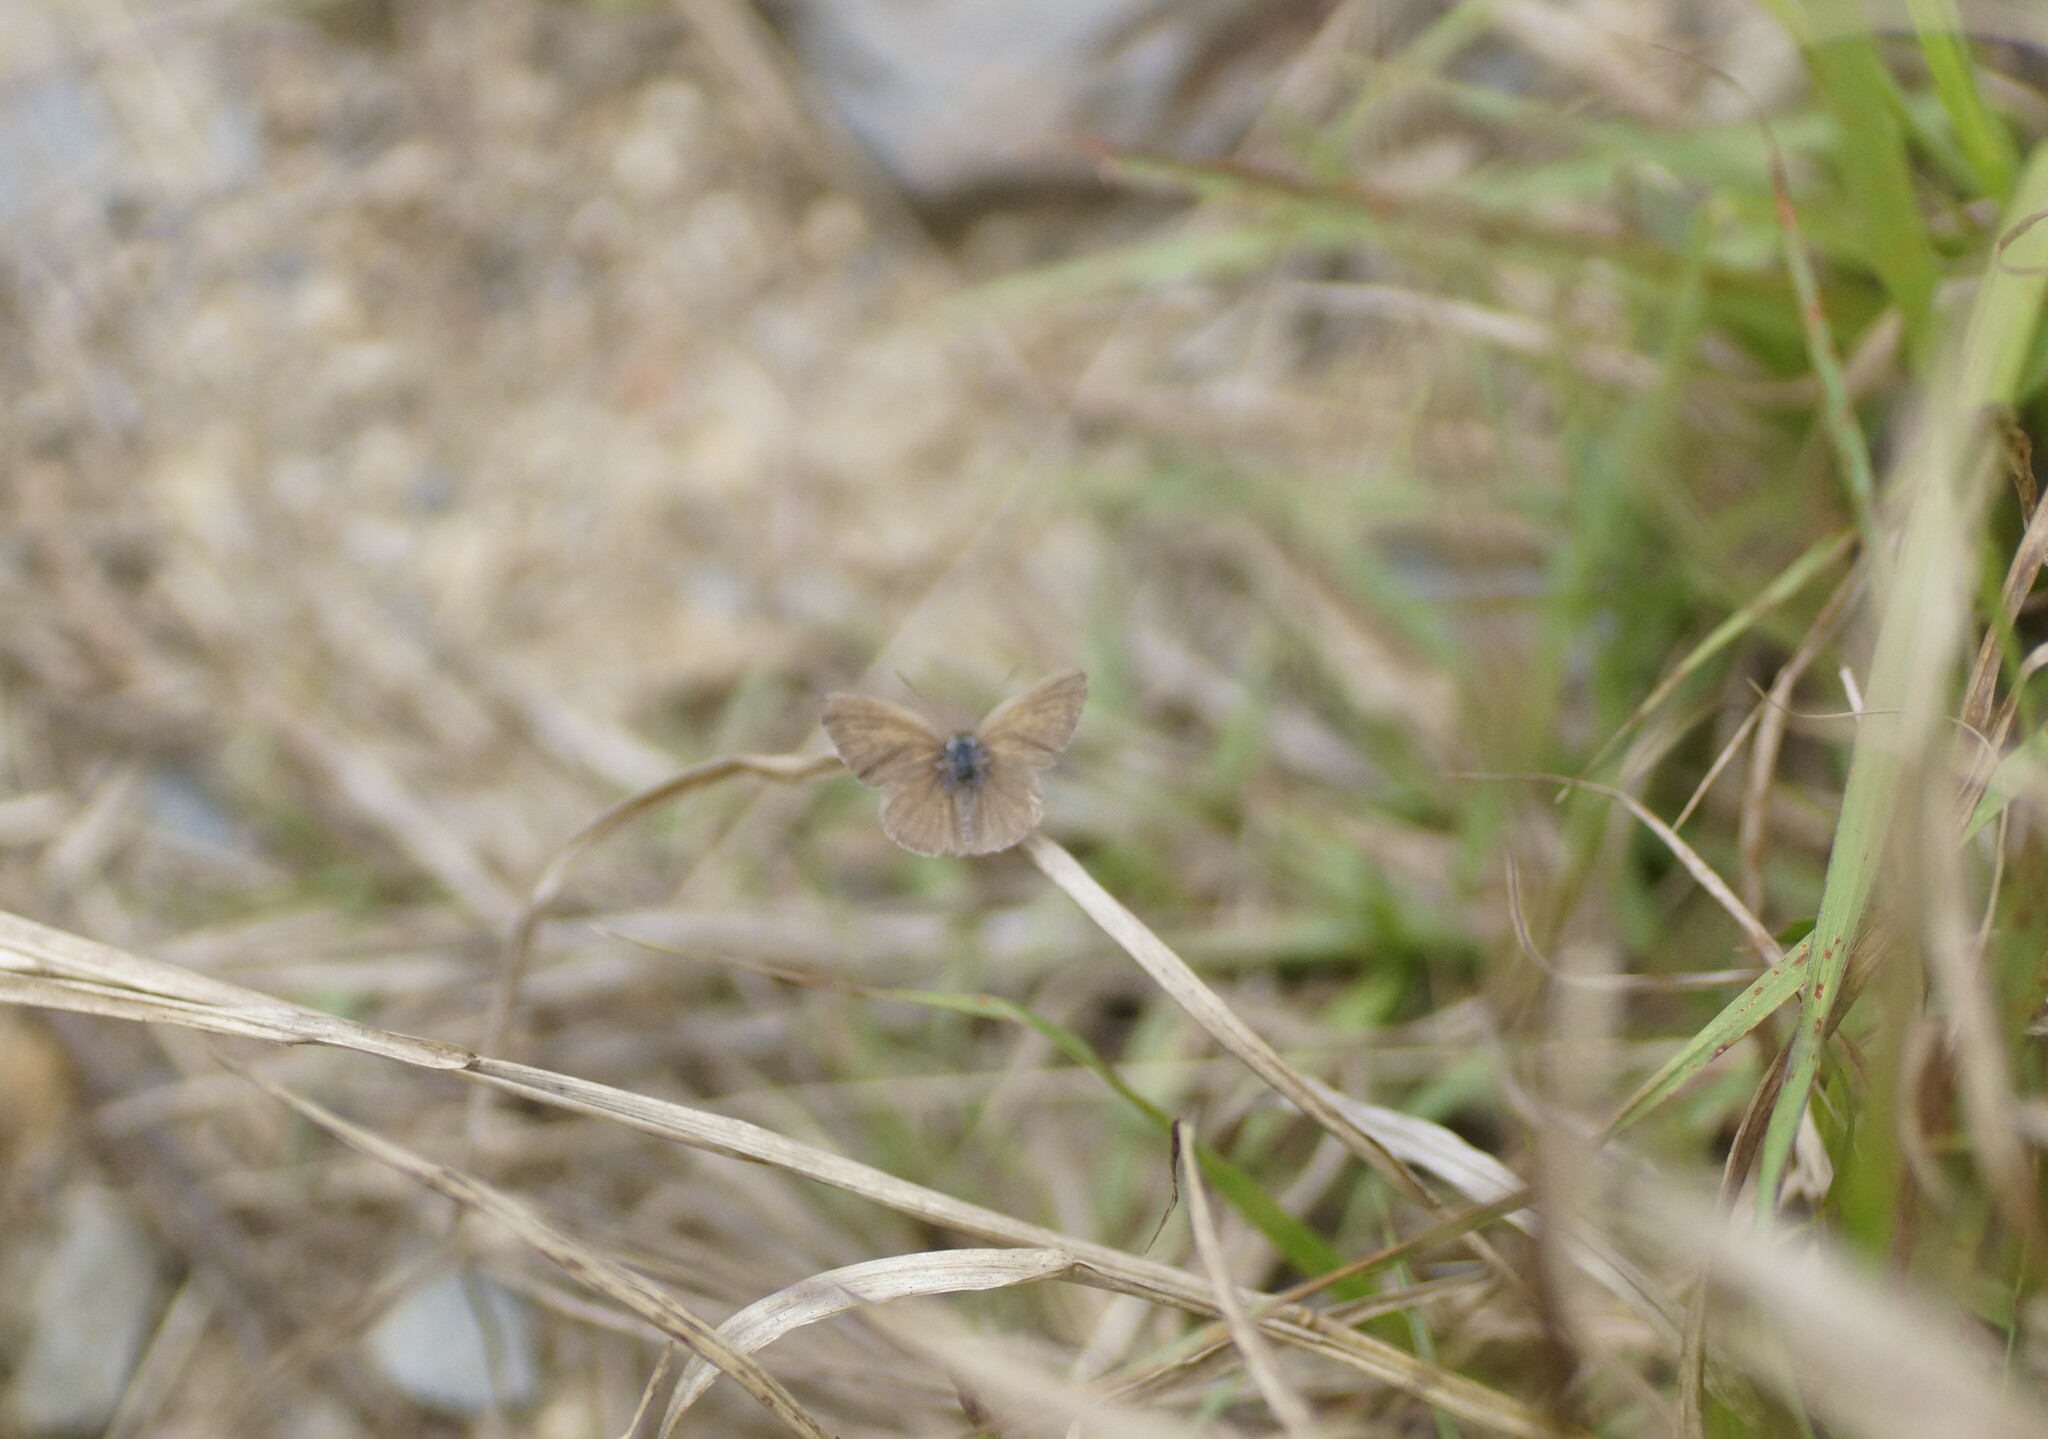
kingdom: Animalia
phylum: Arthropoda
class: Insecta
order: Lepidoptera
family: Lycaenidae
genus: Candalides
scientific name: Candalides
